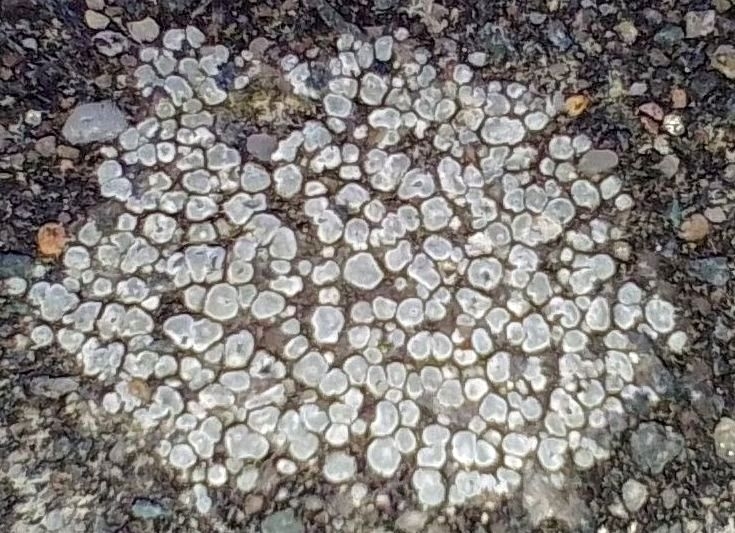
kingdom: Fungi
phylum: Ascomycota
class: Lecanoromycetes
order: Pertusariales
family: Megasporaceae
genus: Circinaria
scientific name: Circinaria contorta
